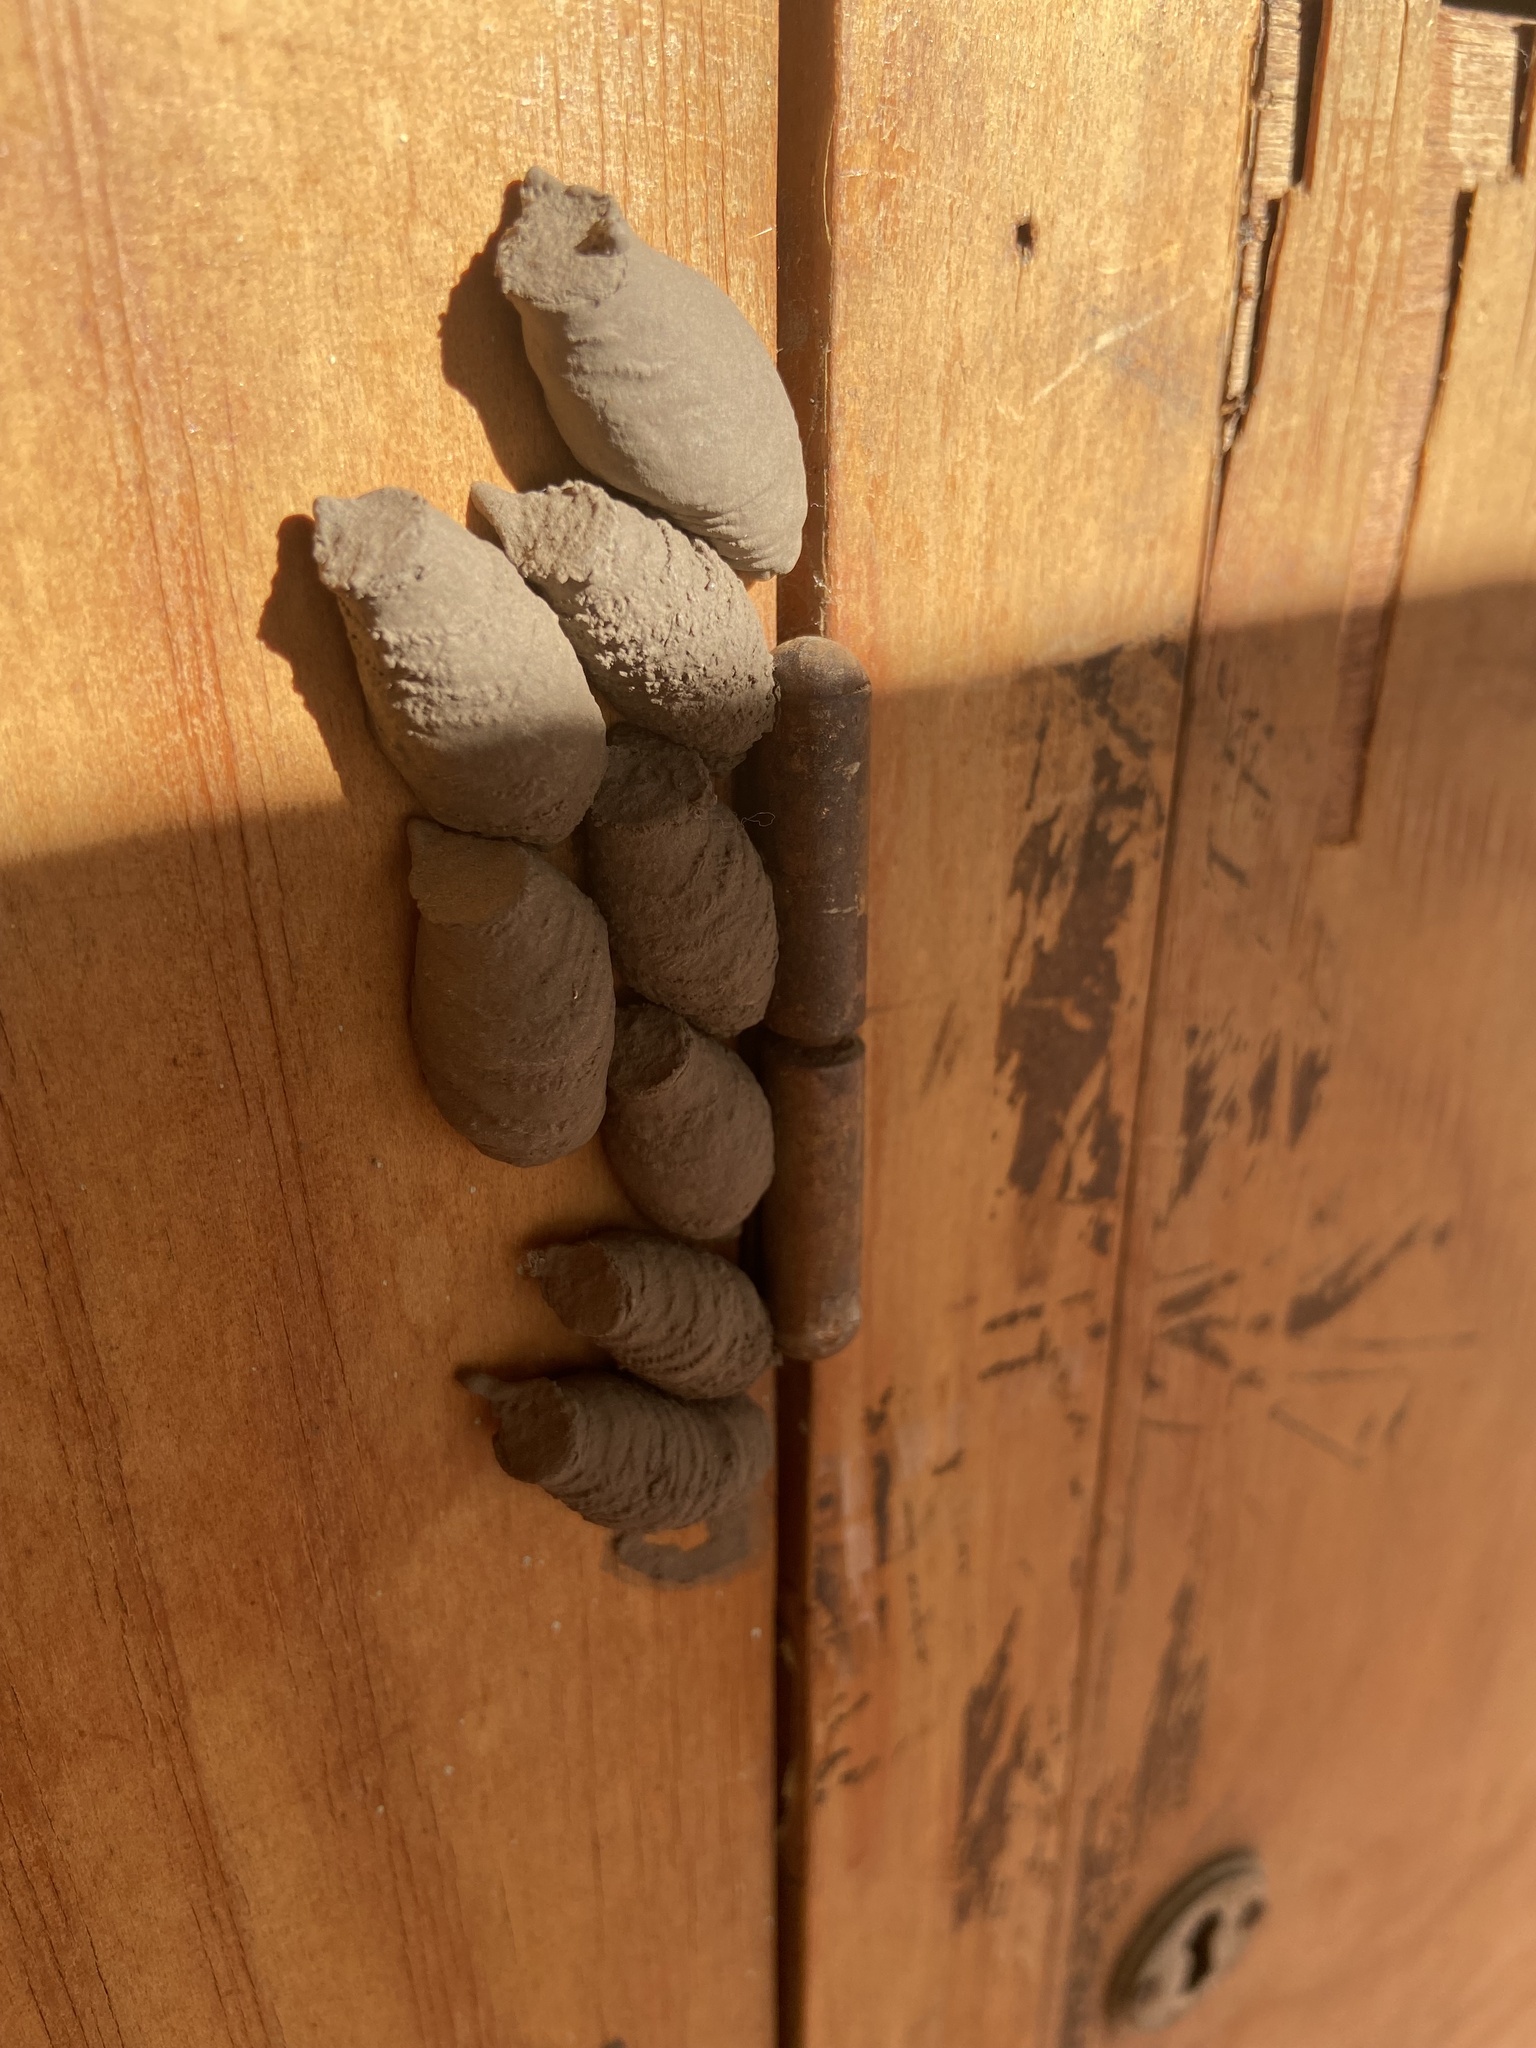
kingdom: Animalia
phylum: Arthropoda
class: Insecta
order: Hymenoptera
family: Sphecidae
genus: Sceliphron
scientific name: Sceliphron curvatum
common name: Pèlopèe
